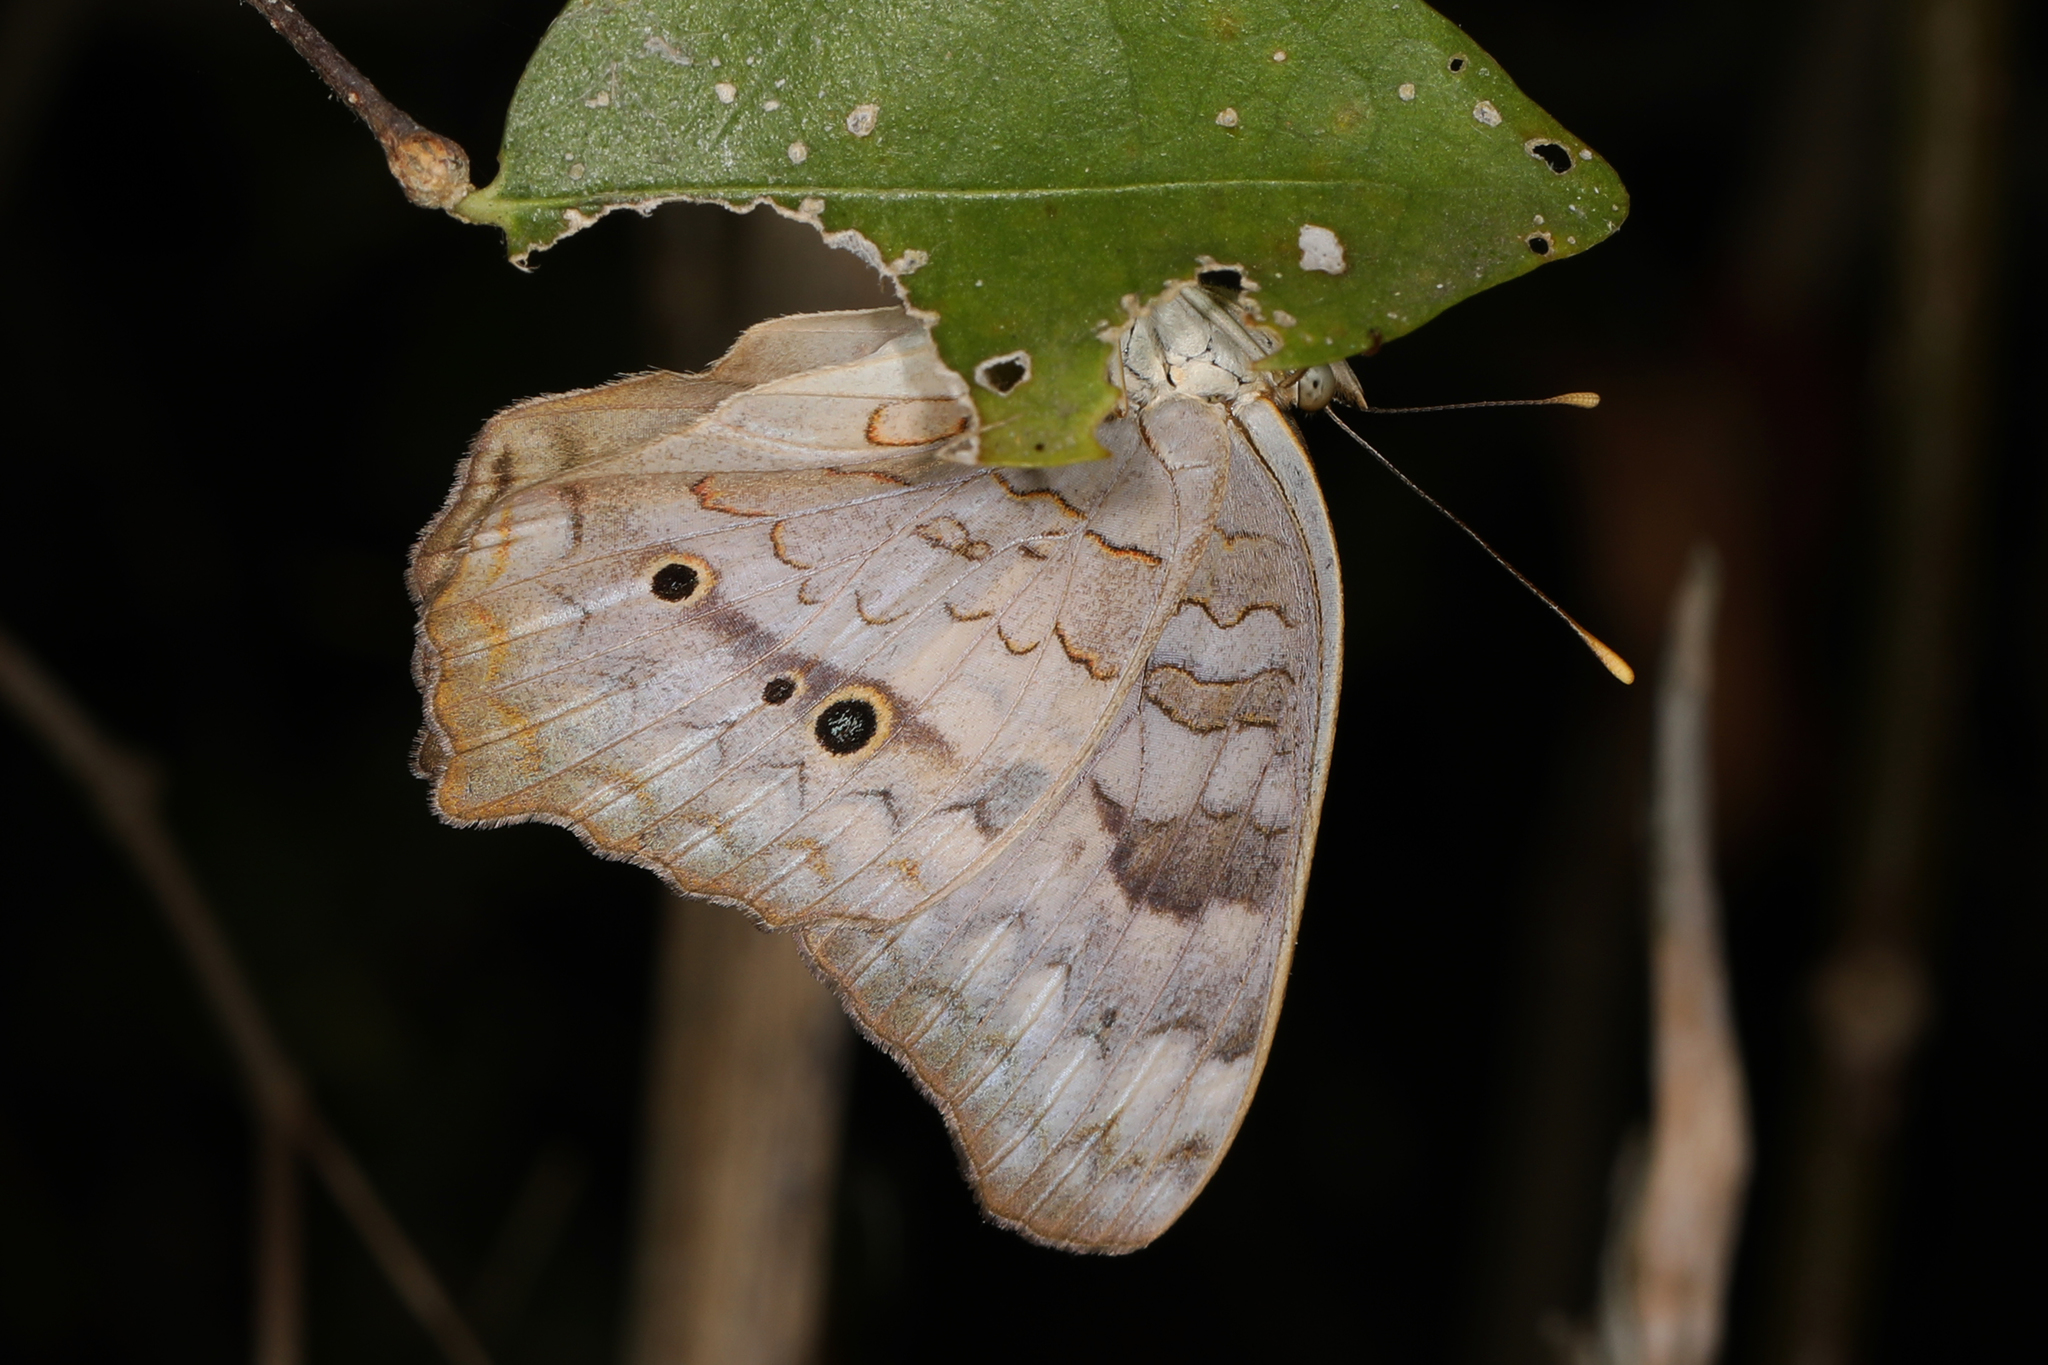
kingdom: Animalia
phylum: Arthropoda
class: Insecta
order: Lepidoptera
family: Nymphalidae
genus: Anartia
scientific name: Anartia jatrophae
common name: White peacock
